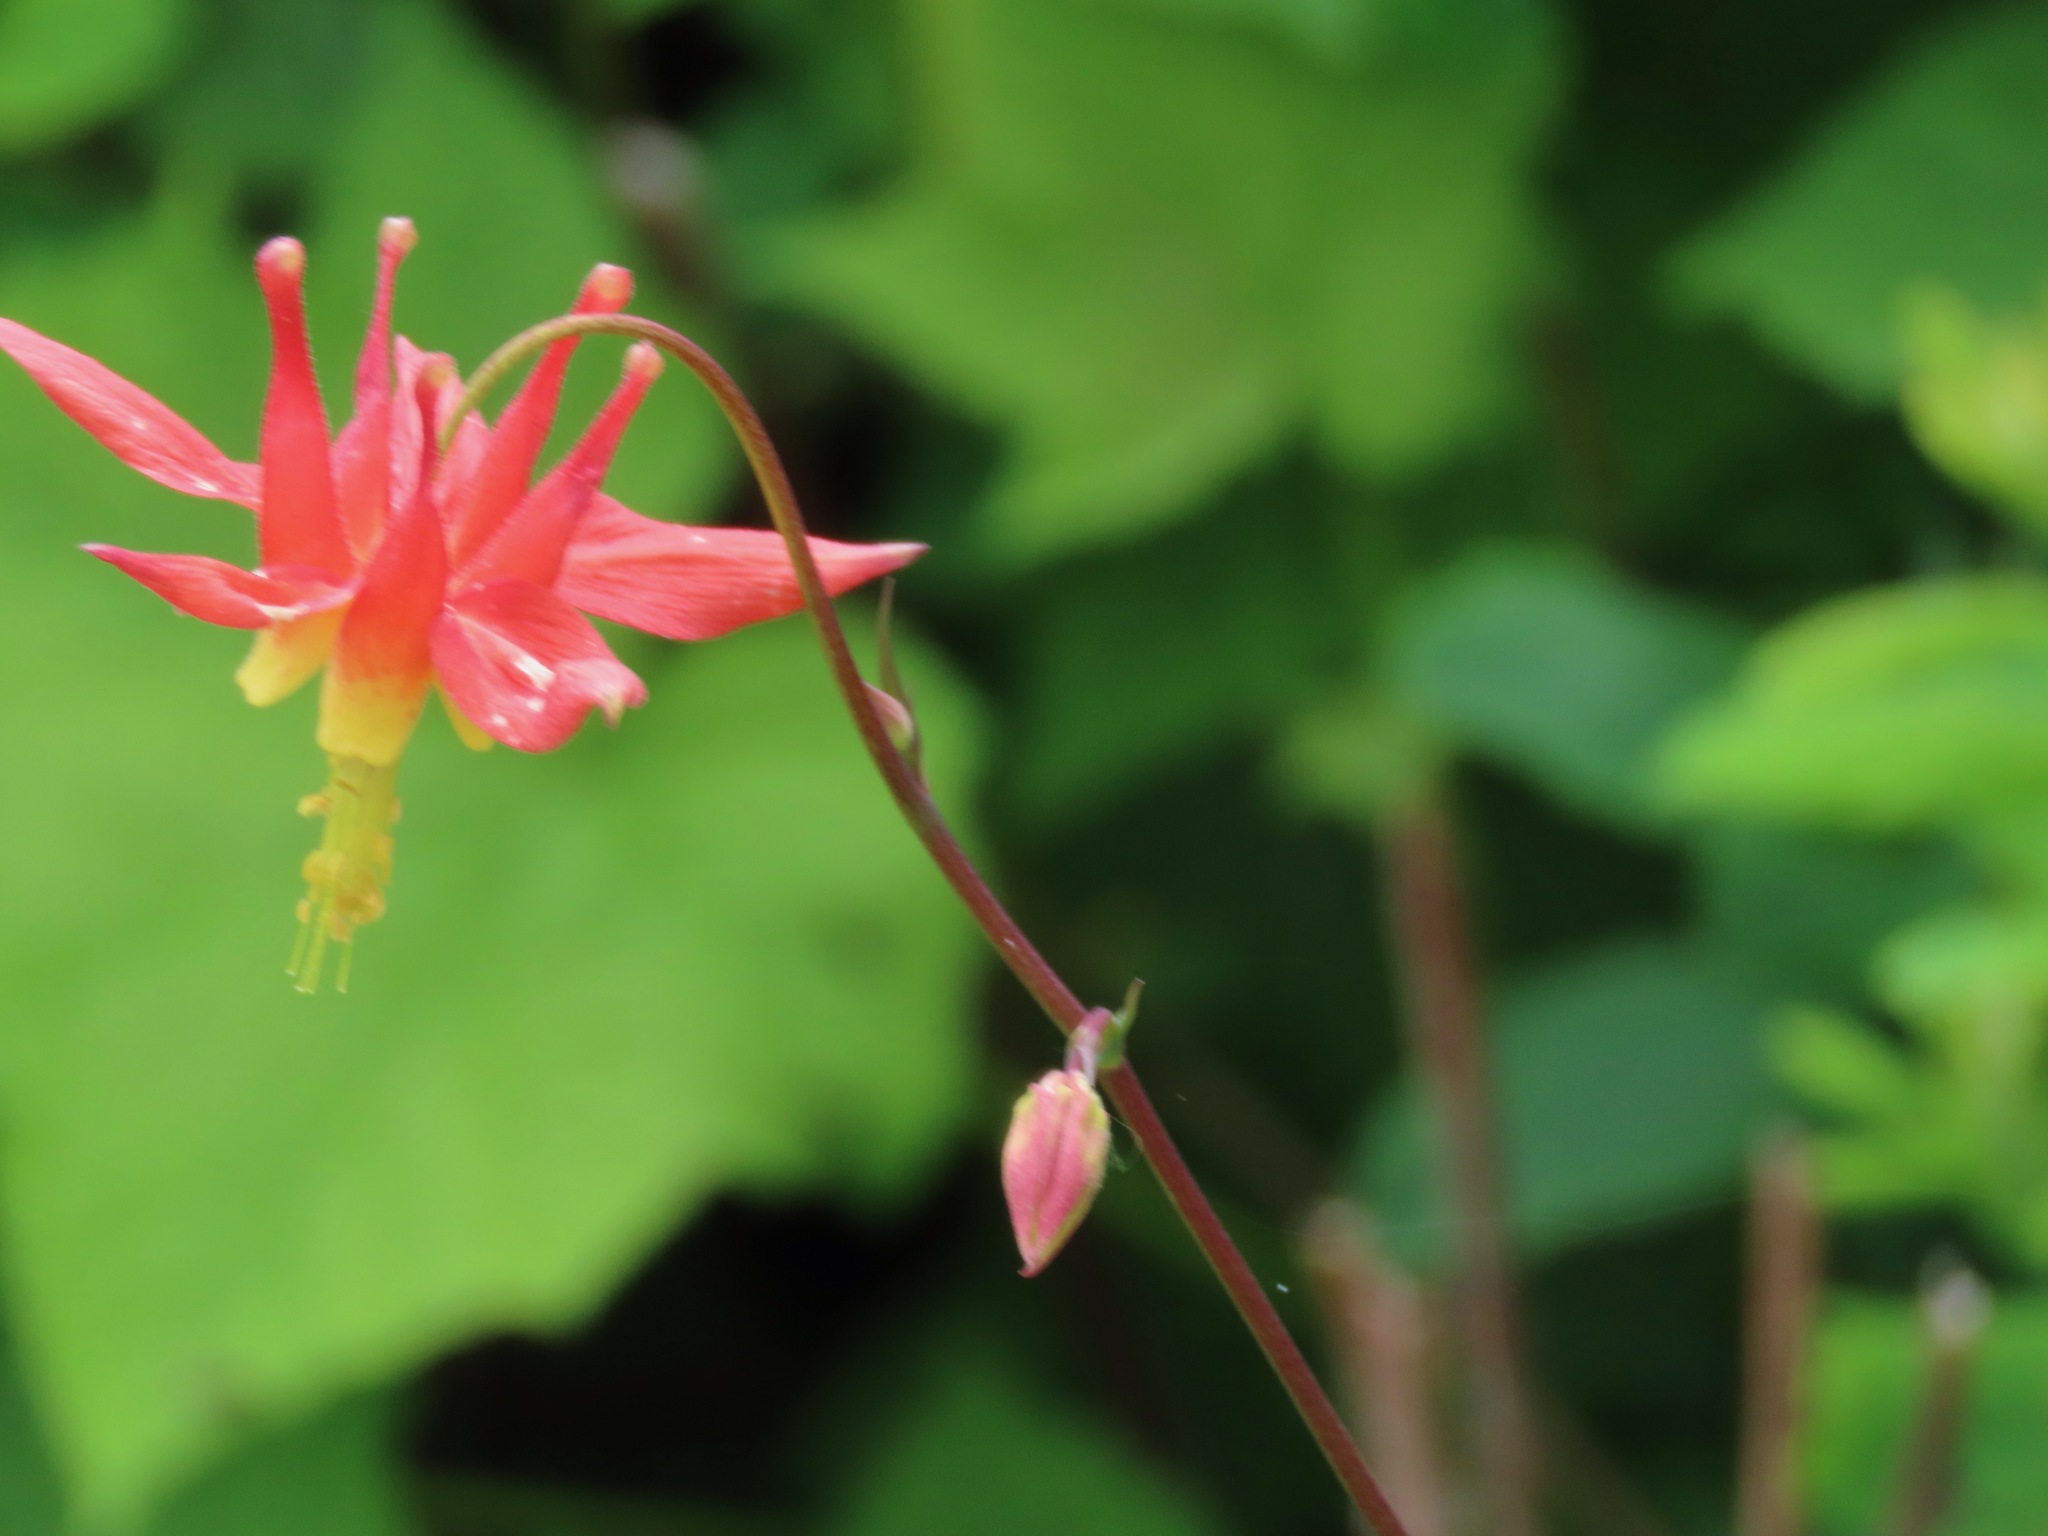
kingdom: Plantae
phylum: Tracheophyta
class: Magnoliopsida
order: Ranunculales
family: Ranunculaceae
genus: Aquilegia
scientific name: Aquilegia formosa
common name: Sitka columbine
